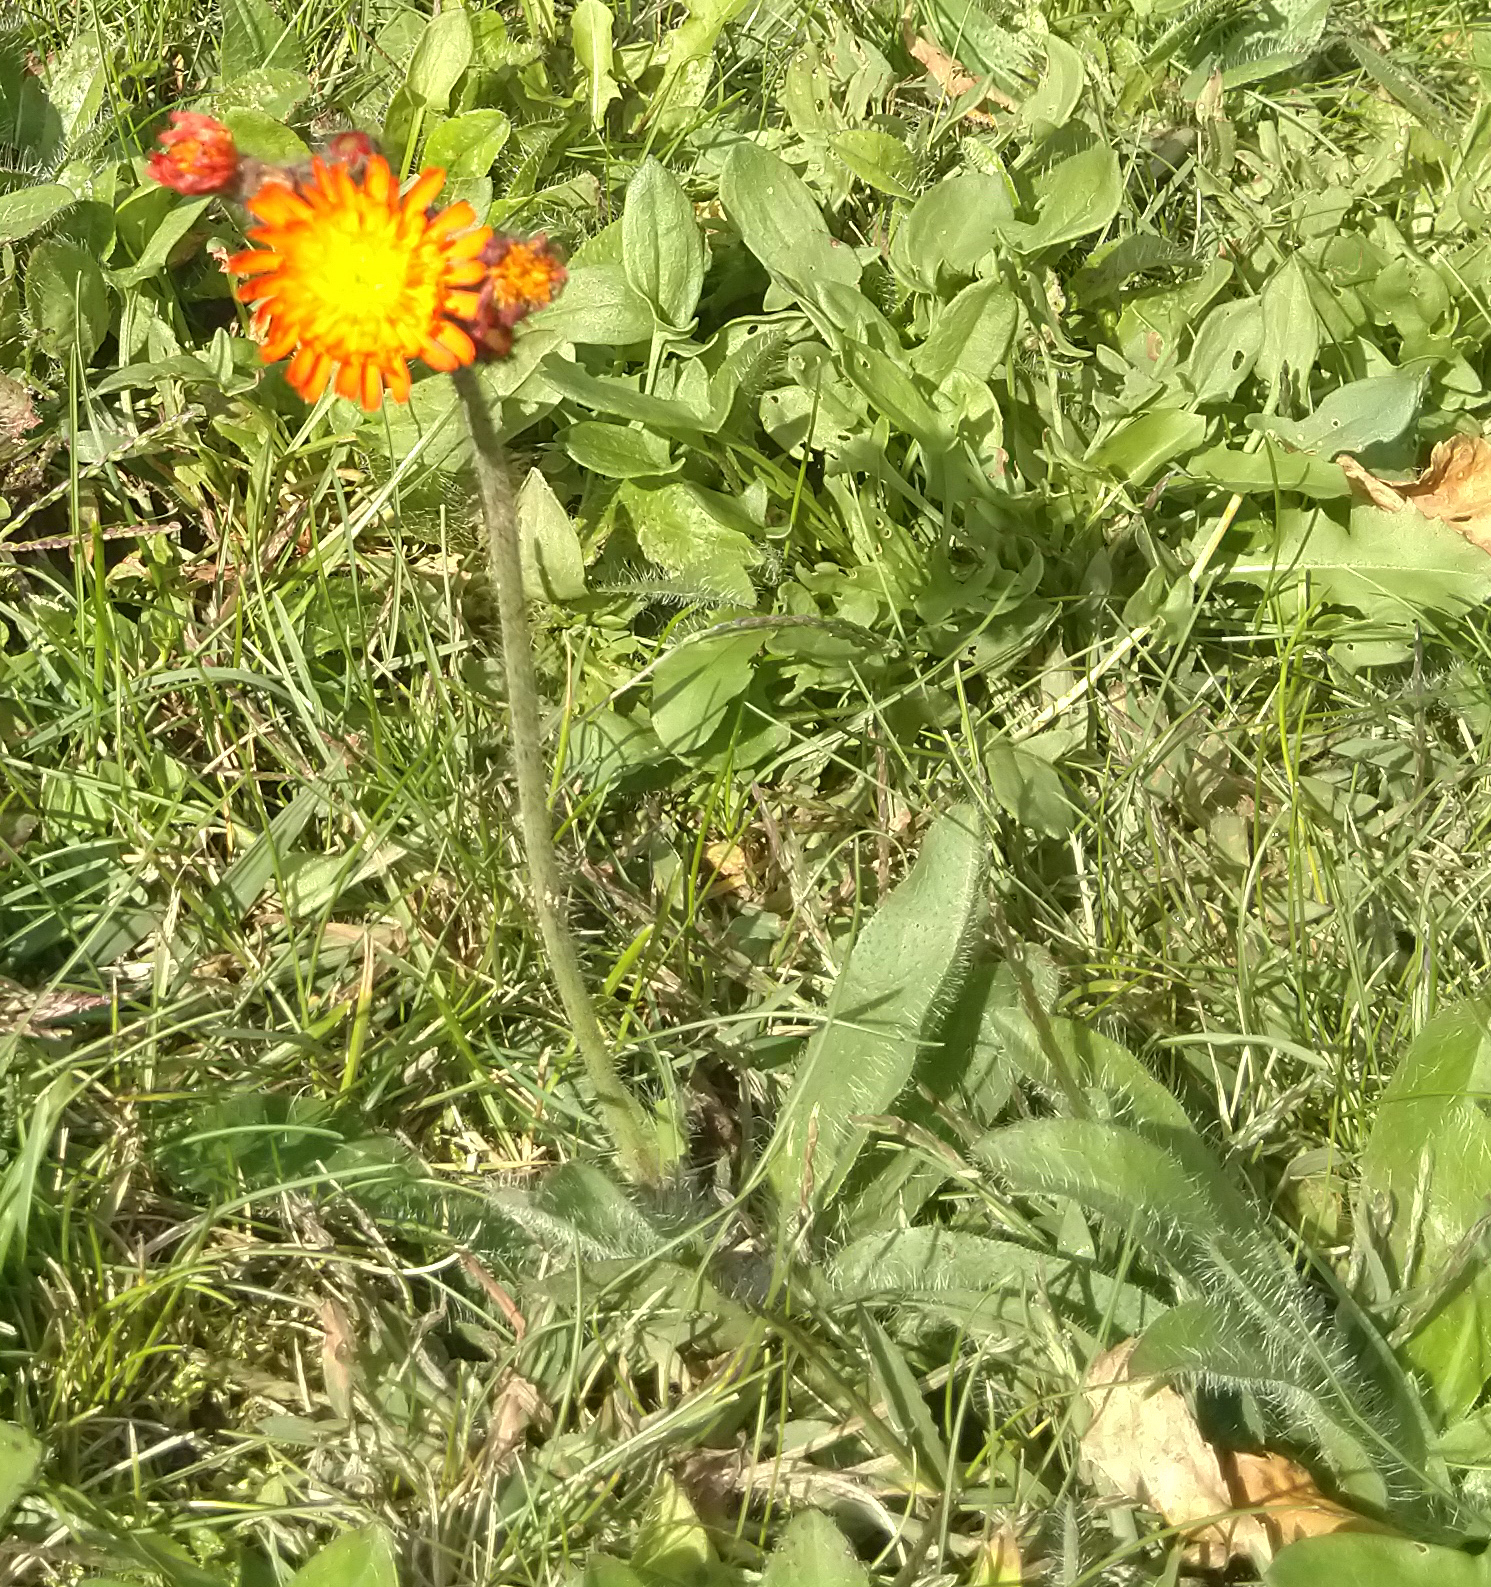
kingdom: Plantae
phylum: Tracheophyta
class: Magnoliopsida
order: Asterales
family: Asteraceae
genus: Pilosella
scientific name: Pilosella aurantiaca
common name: Fox-and-cubs
